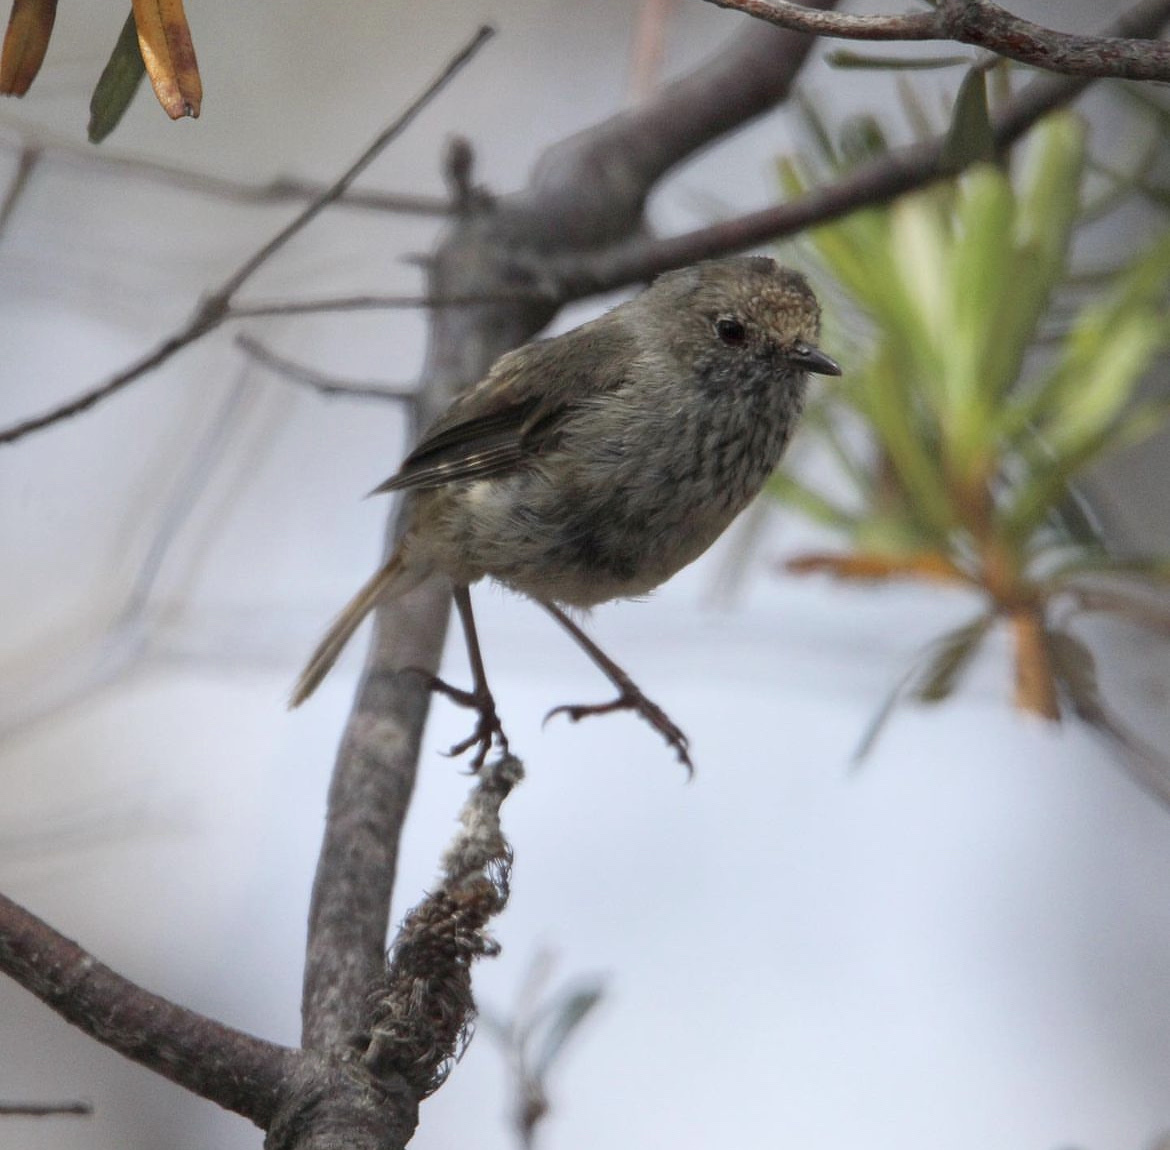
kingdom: Animalia
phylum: Chordata
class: Aves
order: Passeriformes
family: Acanthizidae
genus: Acanthiza
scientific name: Acanthiza pusilla
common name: Brown thornbill
